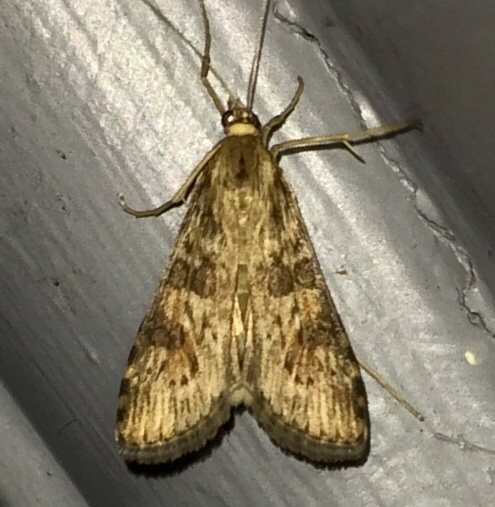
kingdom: Animalia
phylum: Arthropoda
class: Insecta
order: Lepidoptera
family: Crambidae
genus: Nomophila
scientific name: Nomophila nearctica
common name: American rush veneer
